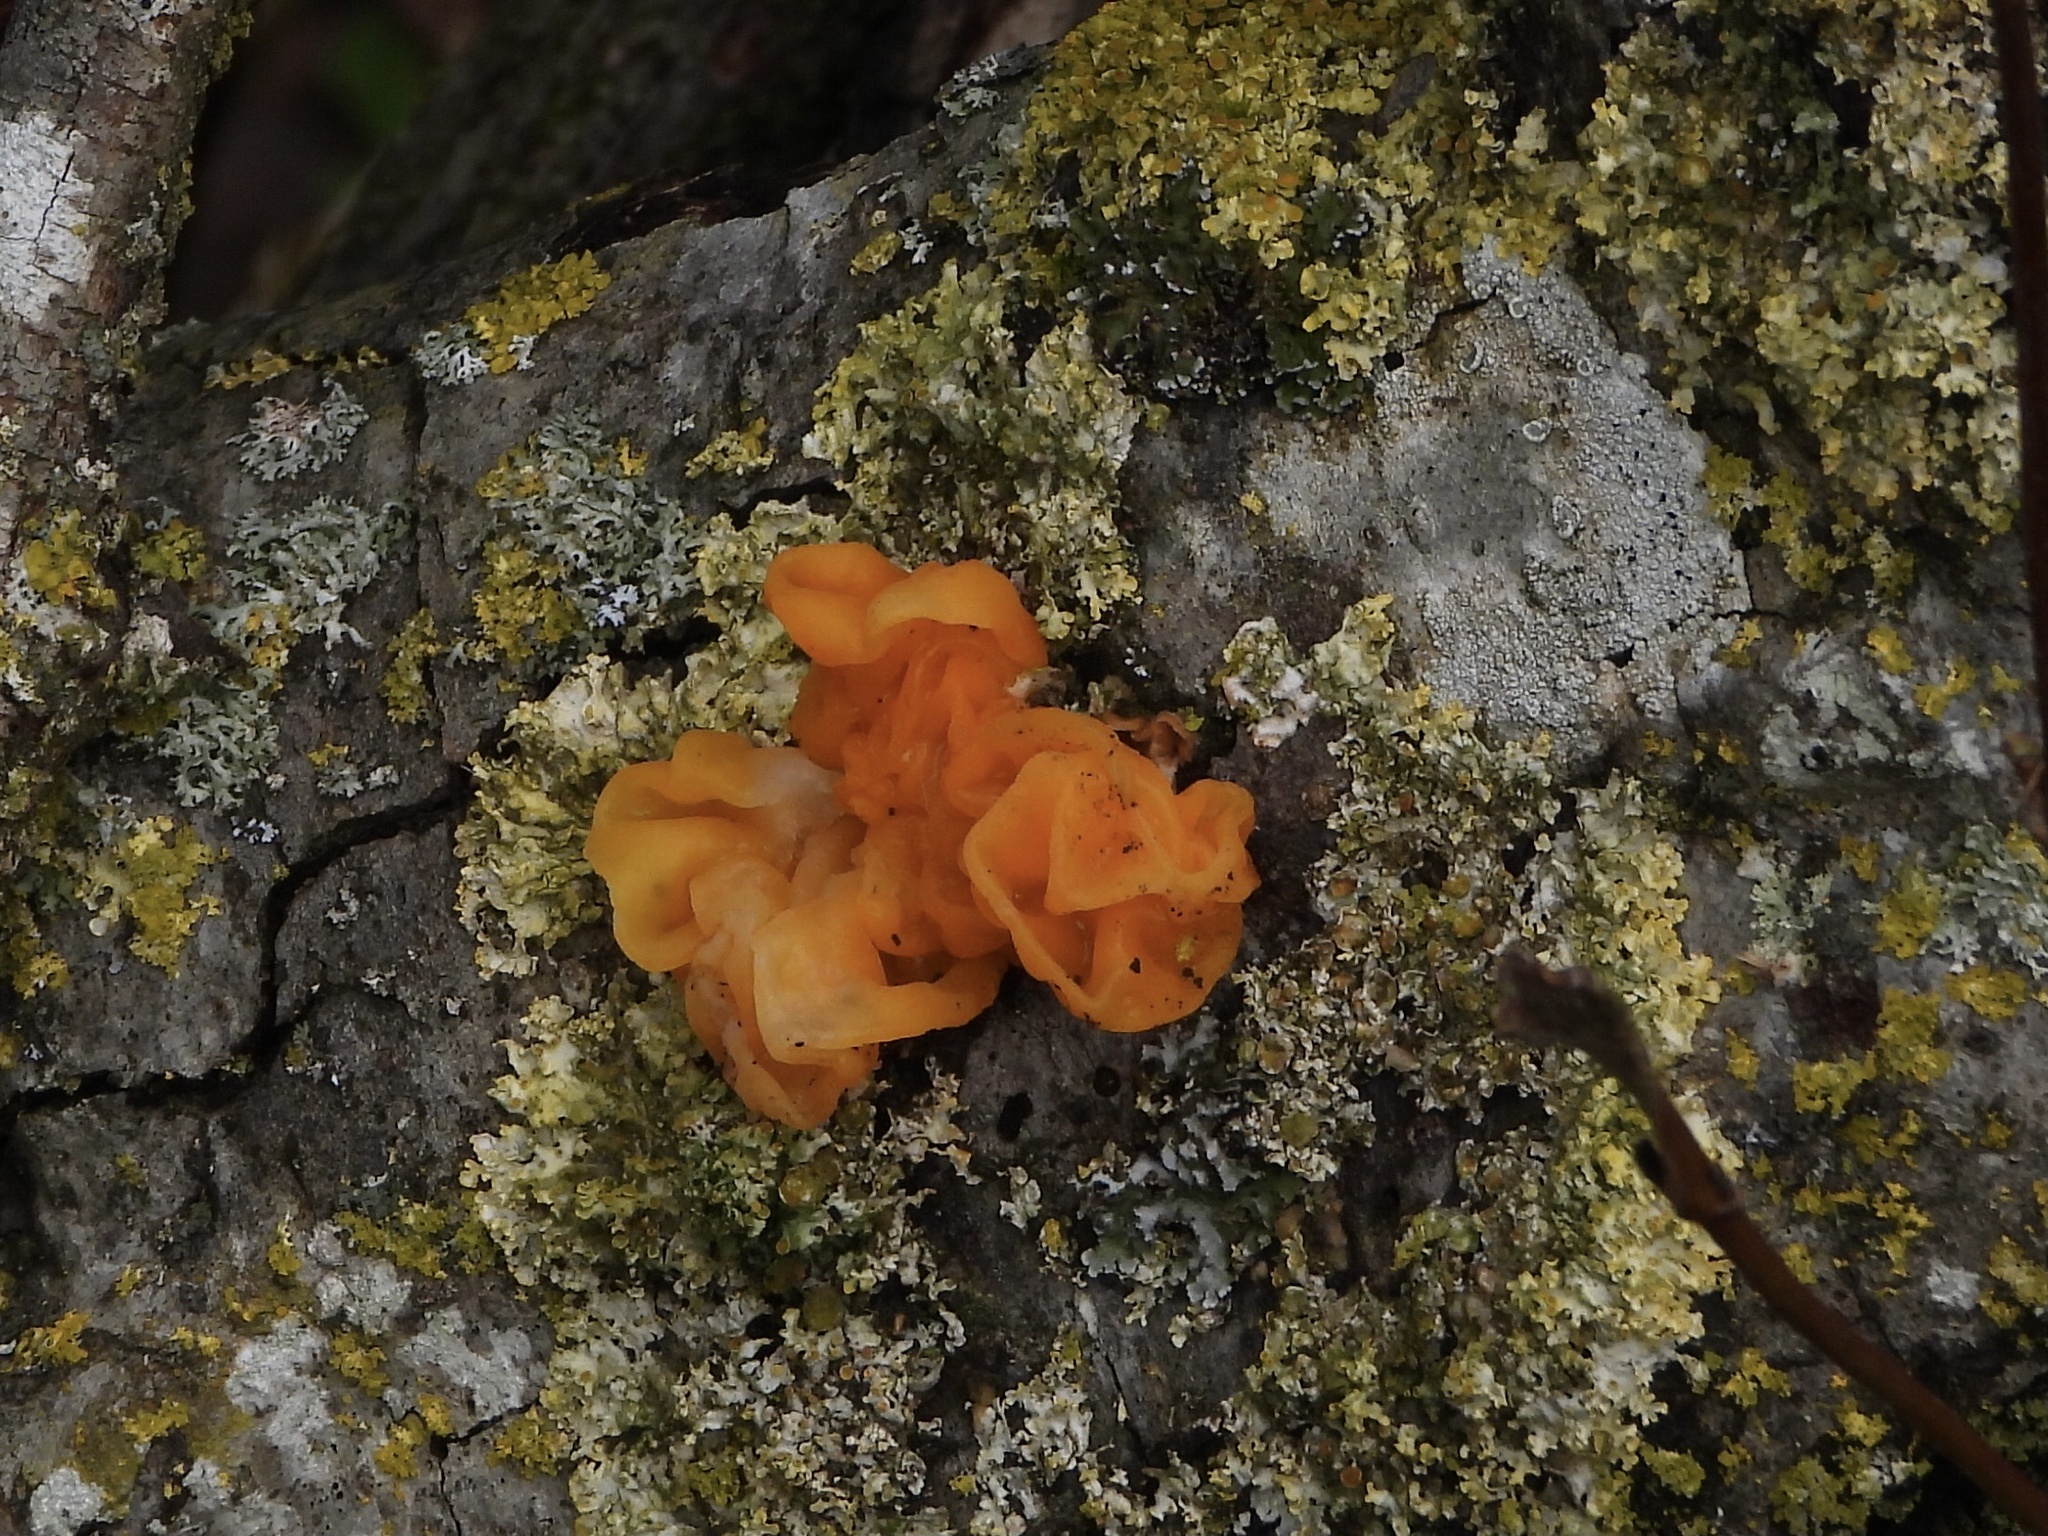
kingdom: Fungi
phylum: Basidiomycota
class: Tremellomycetes
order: Tremellales
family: Naemateliaceae
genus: Naematelia
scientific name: Naematelia aurantia
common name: Golden ear
